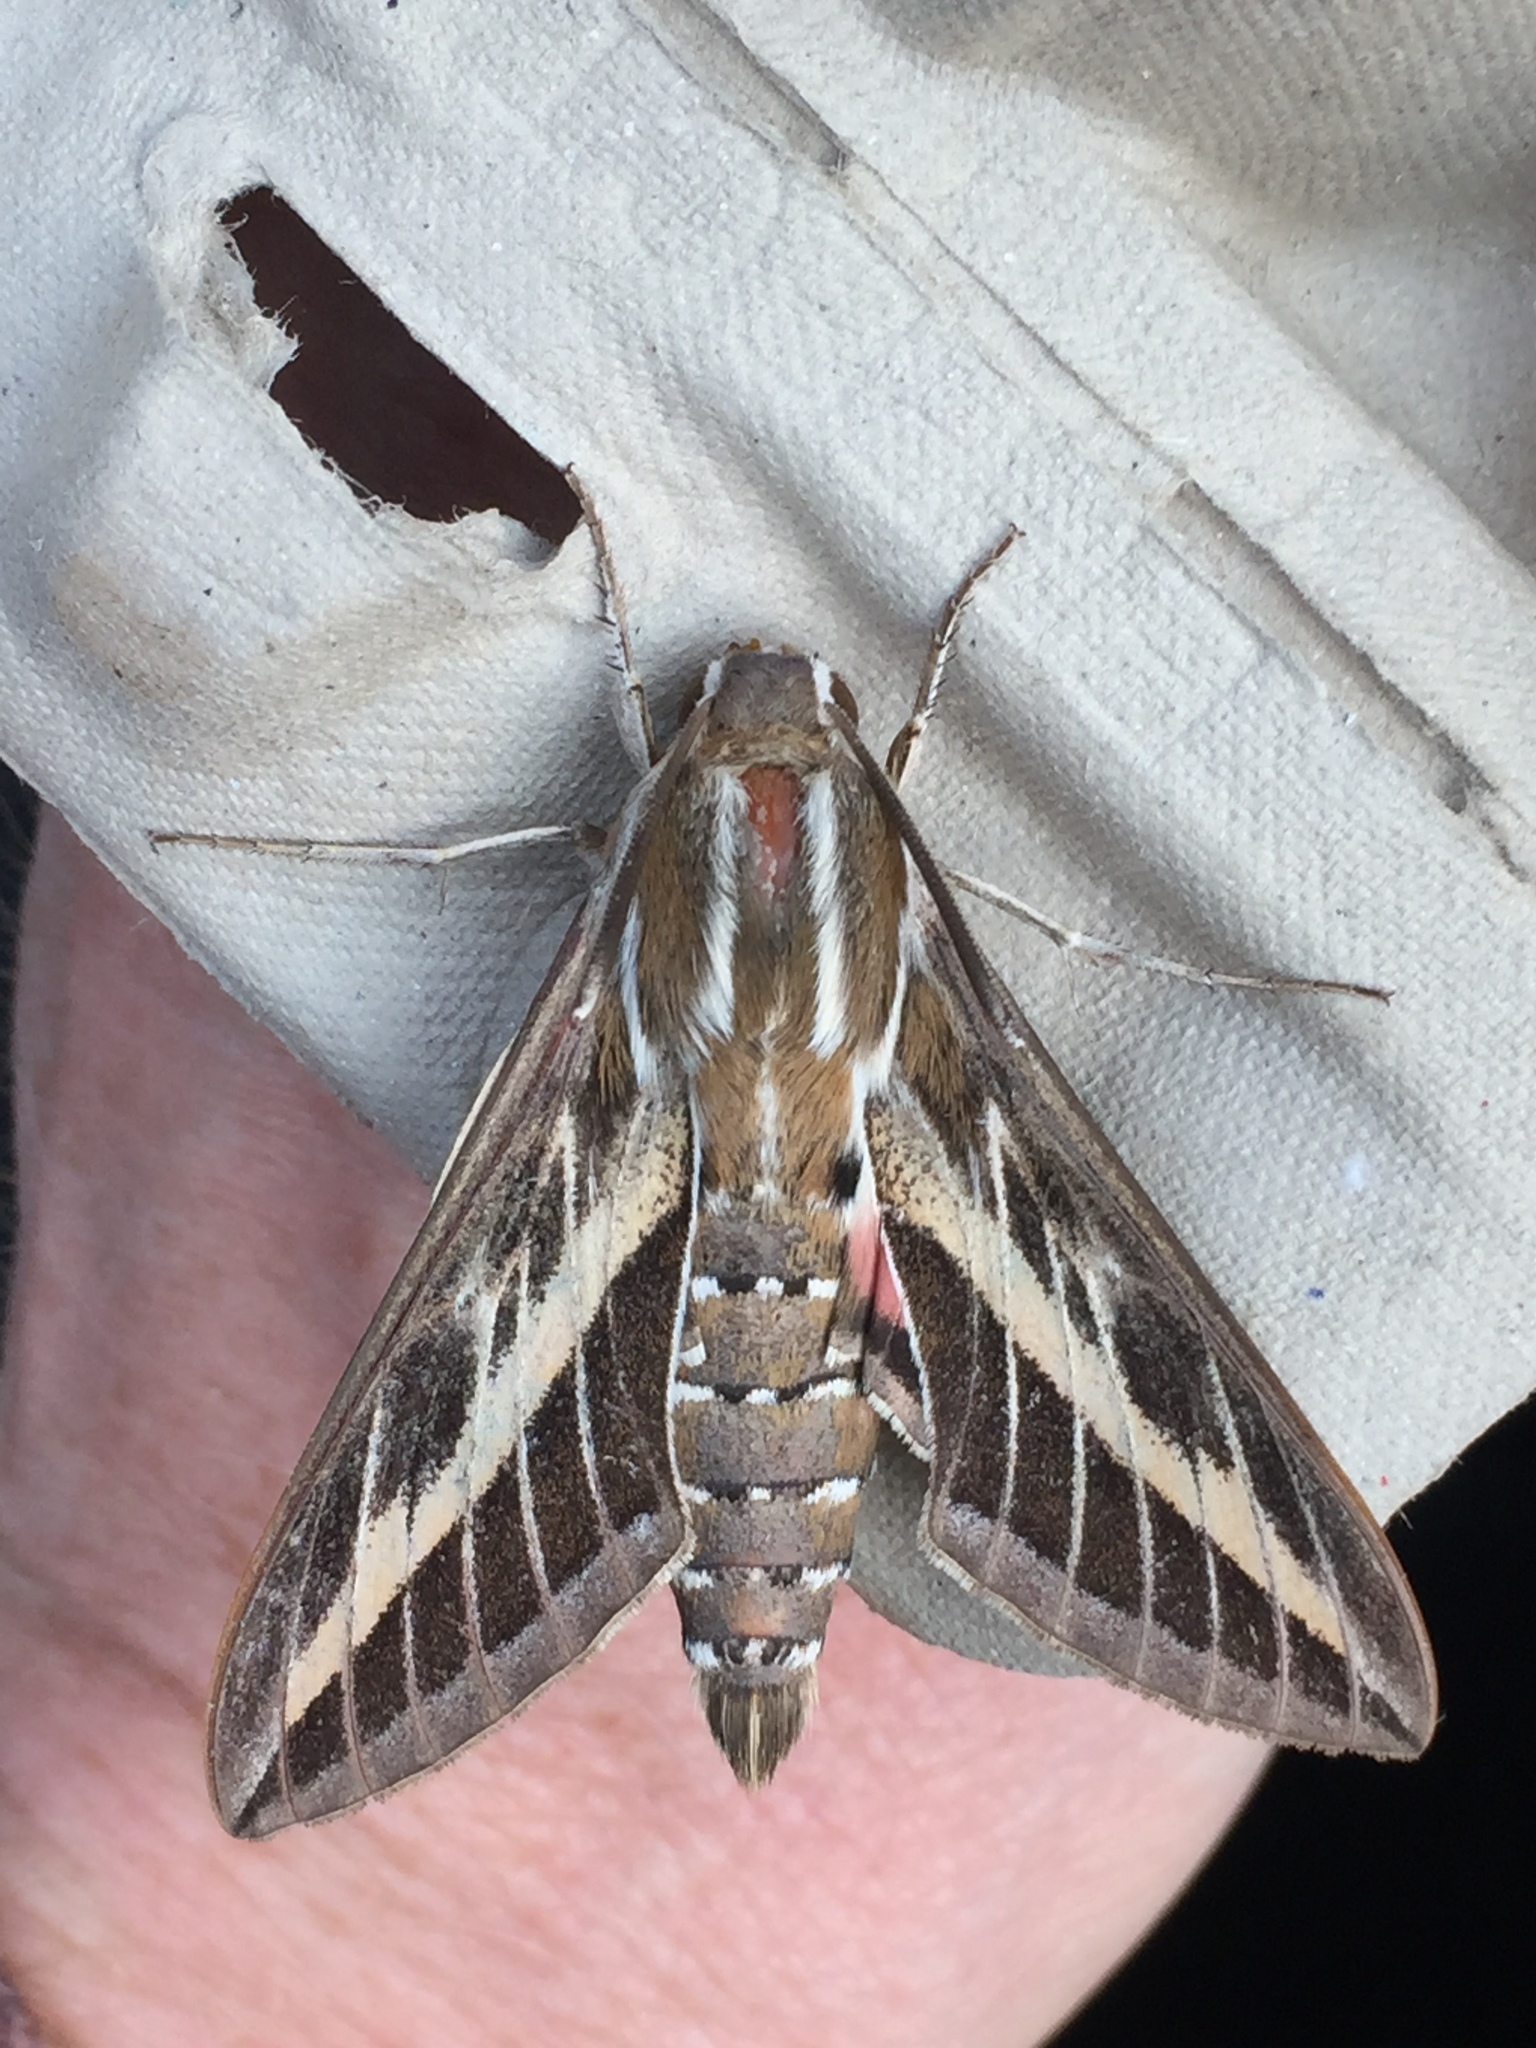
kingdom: Animalia
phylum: Arthropoda
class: Insecta
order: Lepidoptera
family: Sphingidae
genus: Hyles
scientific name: Hyles livornica
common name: Striped hawk-moth
